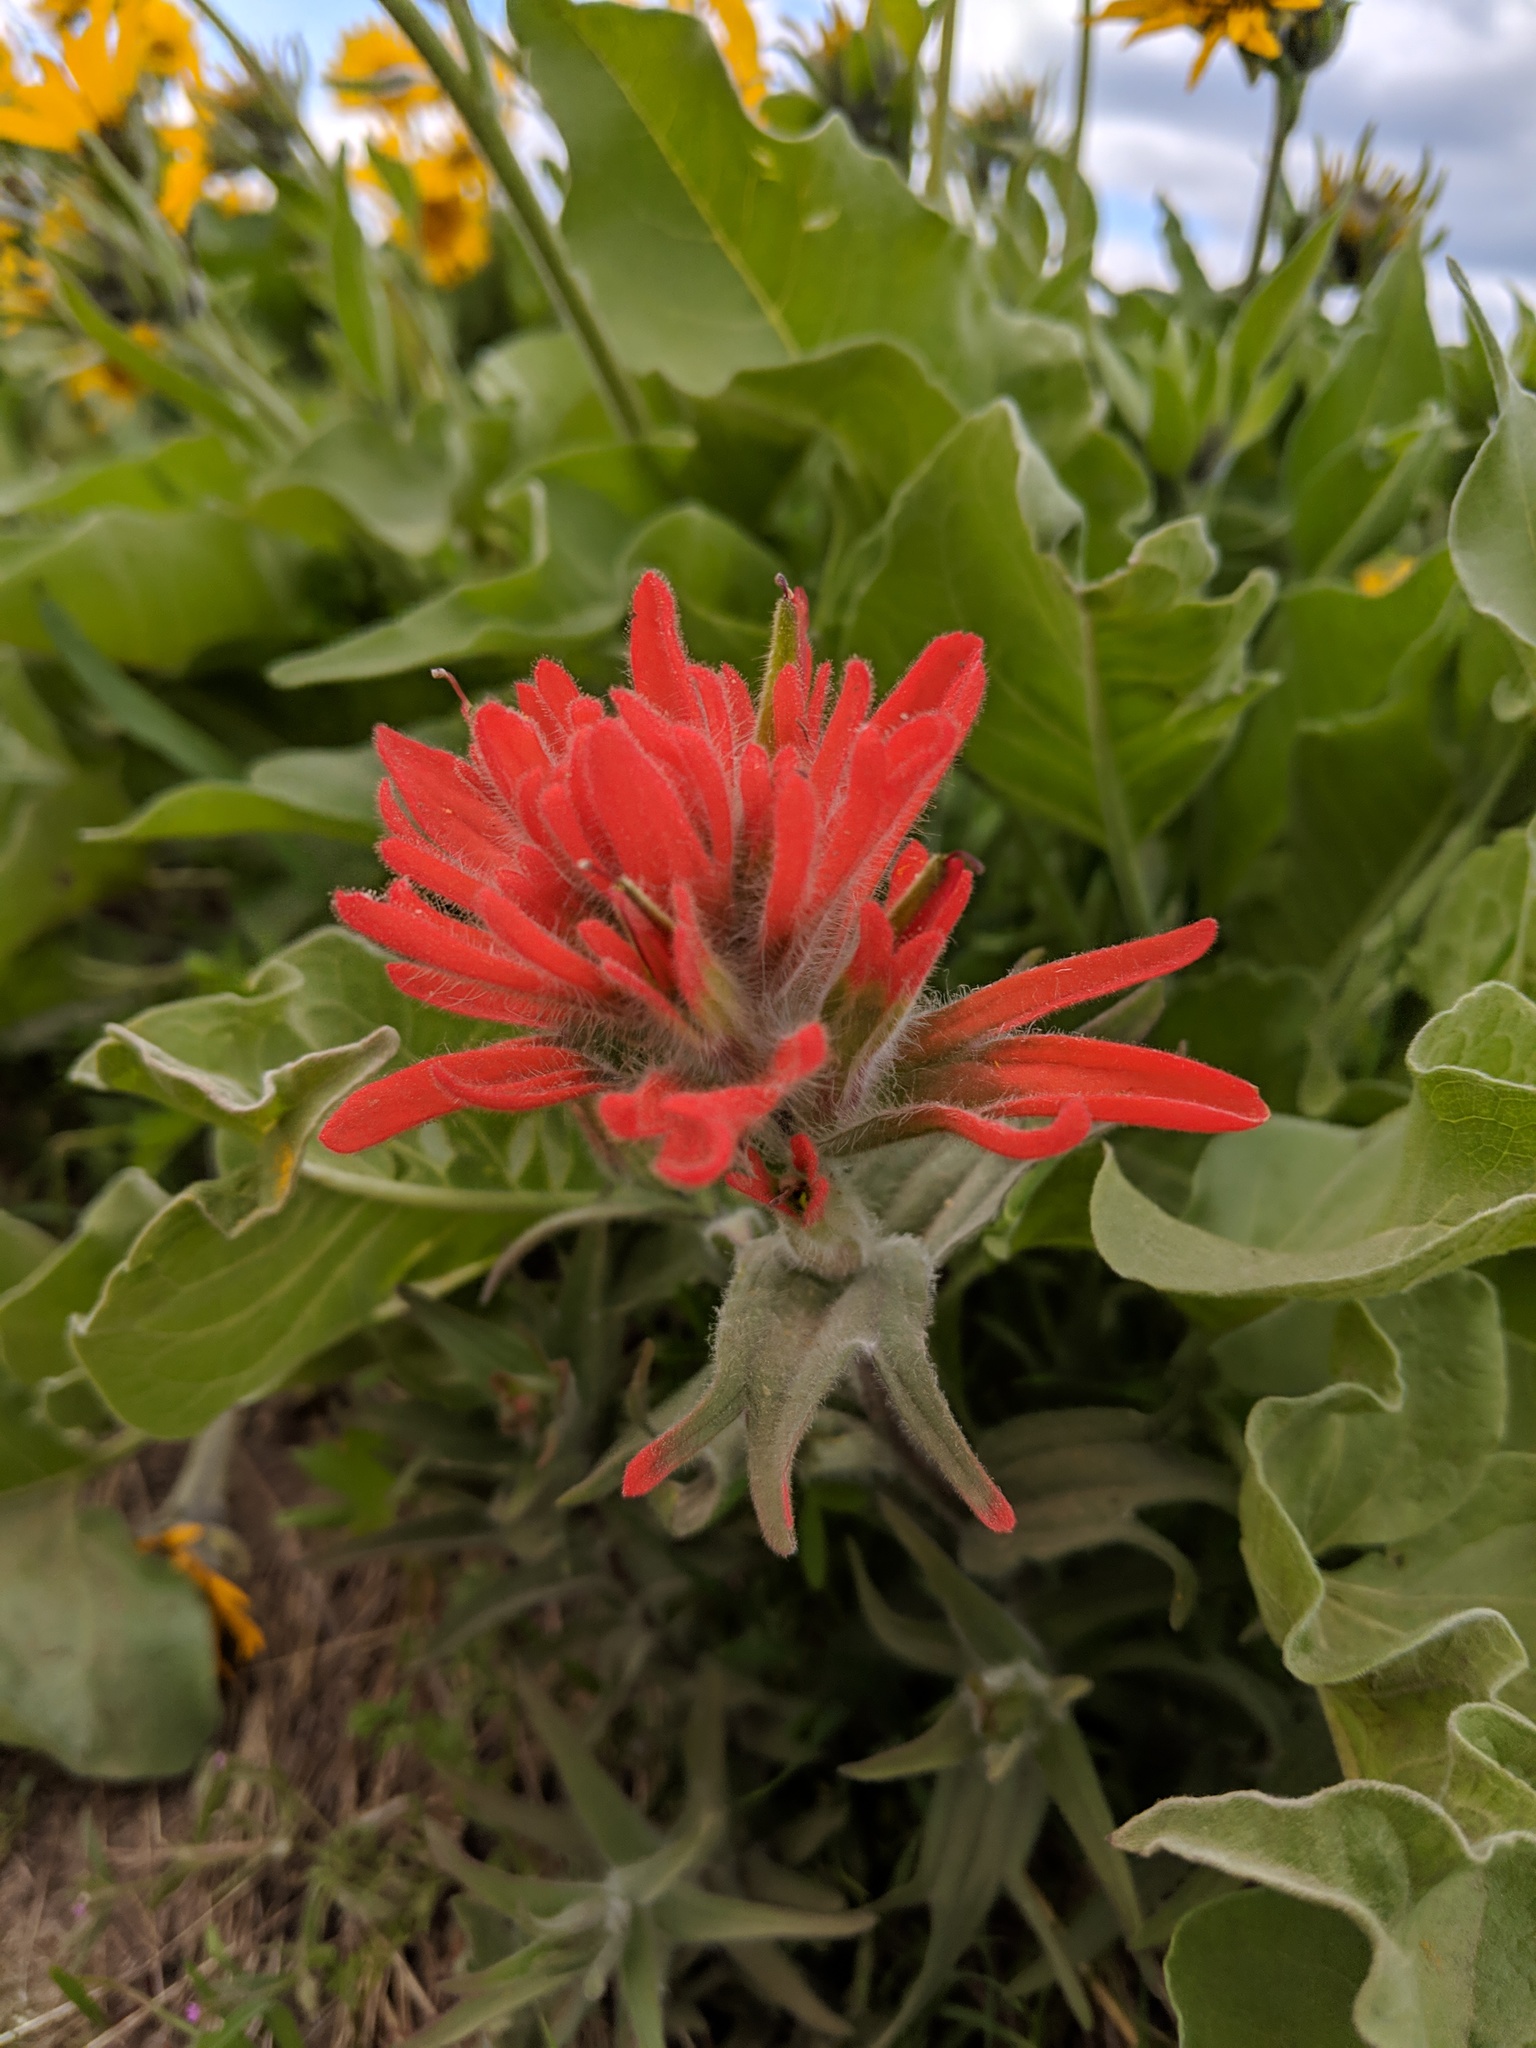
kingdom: Plantae
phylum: Tracheophyta
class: Magnoliopsida
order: Lamiales
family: Orobanchaceae
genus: Castilleja
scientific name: Castilleja hispida
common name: Bristly paintbrush
